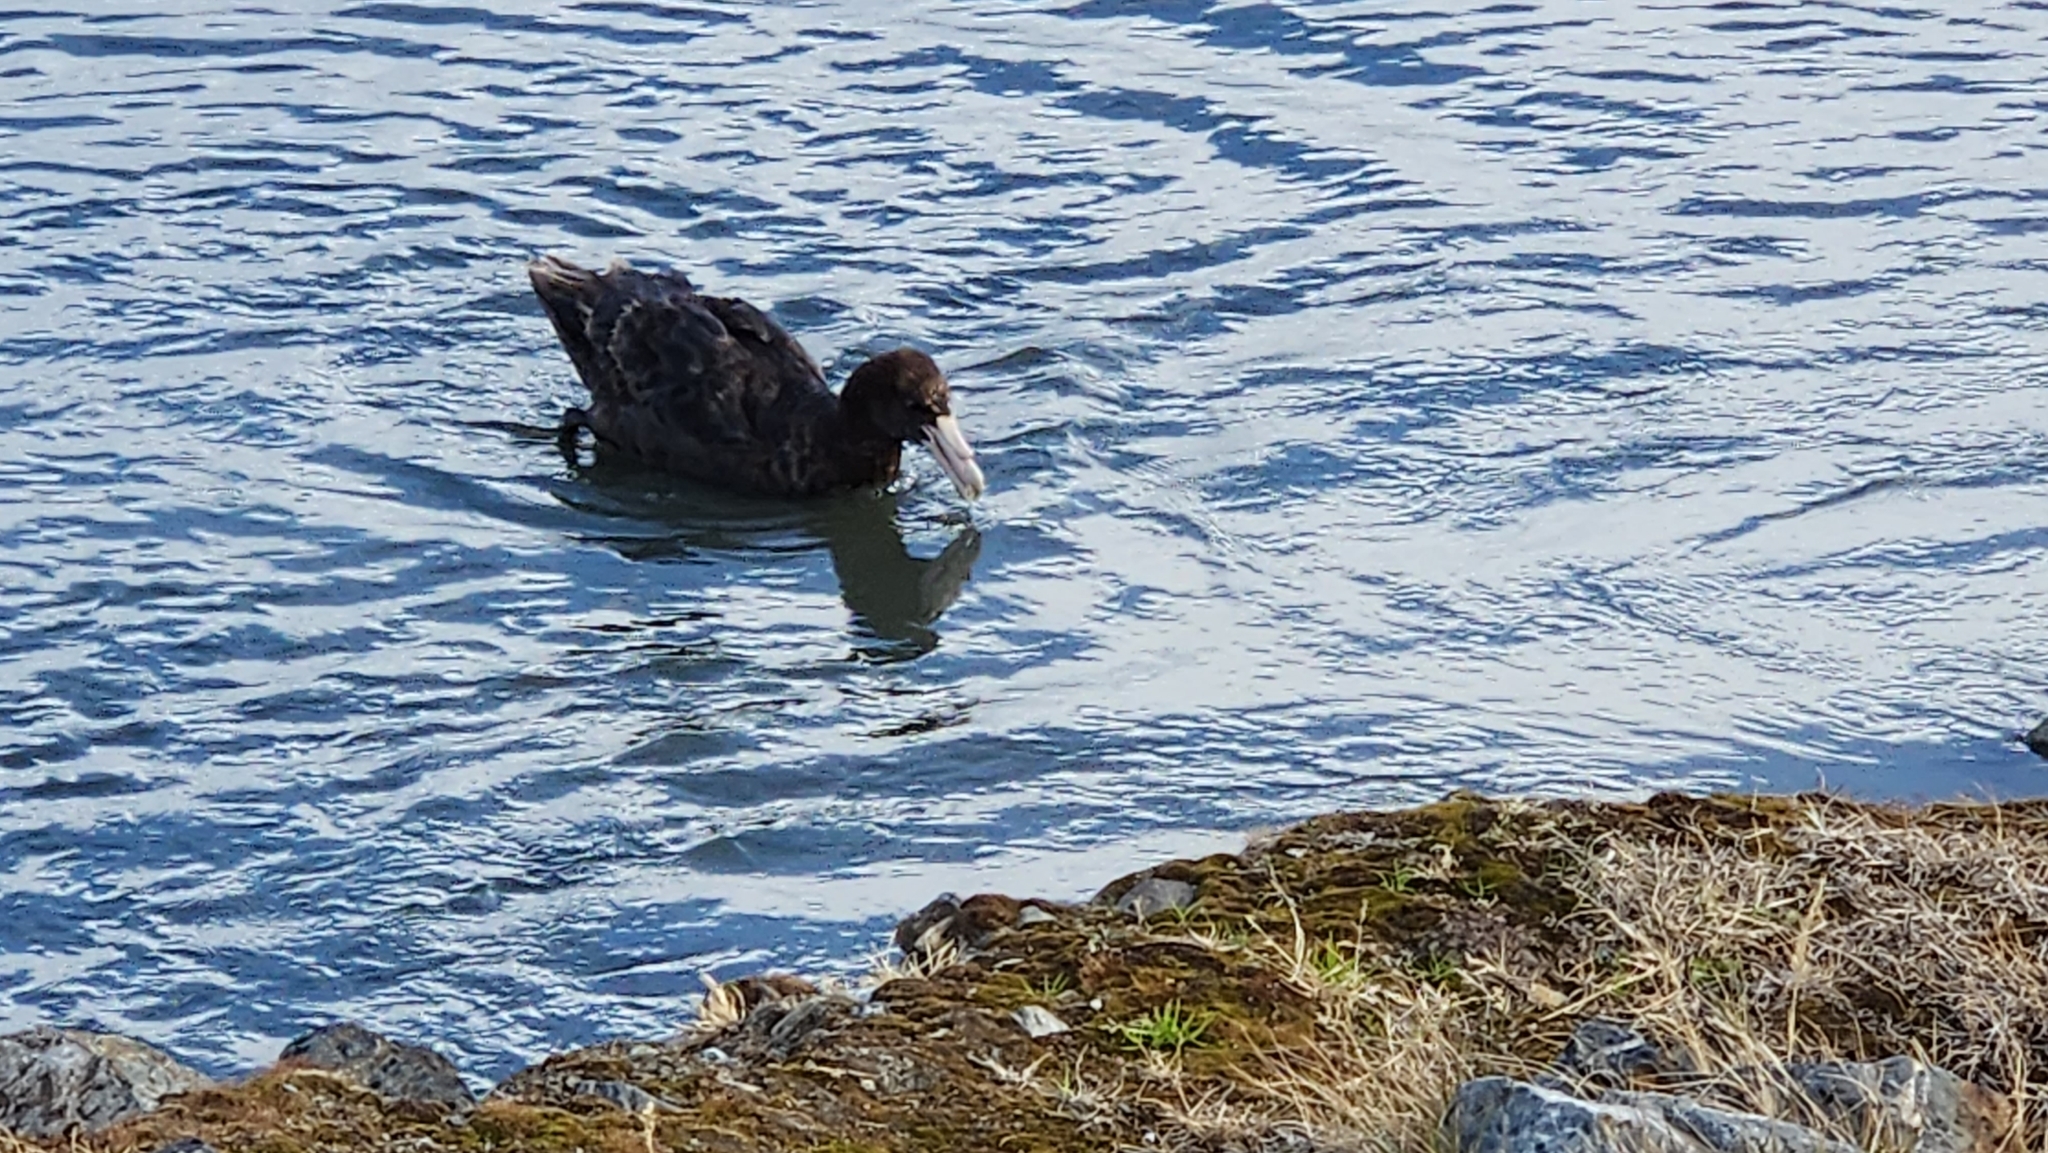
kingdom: Animalia
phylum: Chordata
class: Aves
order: Procellariiformes
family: Procellariidae
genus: Macronectes
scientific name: Macronectes giganteus
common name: Southern giant petrel
